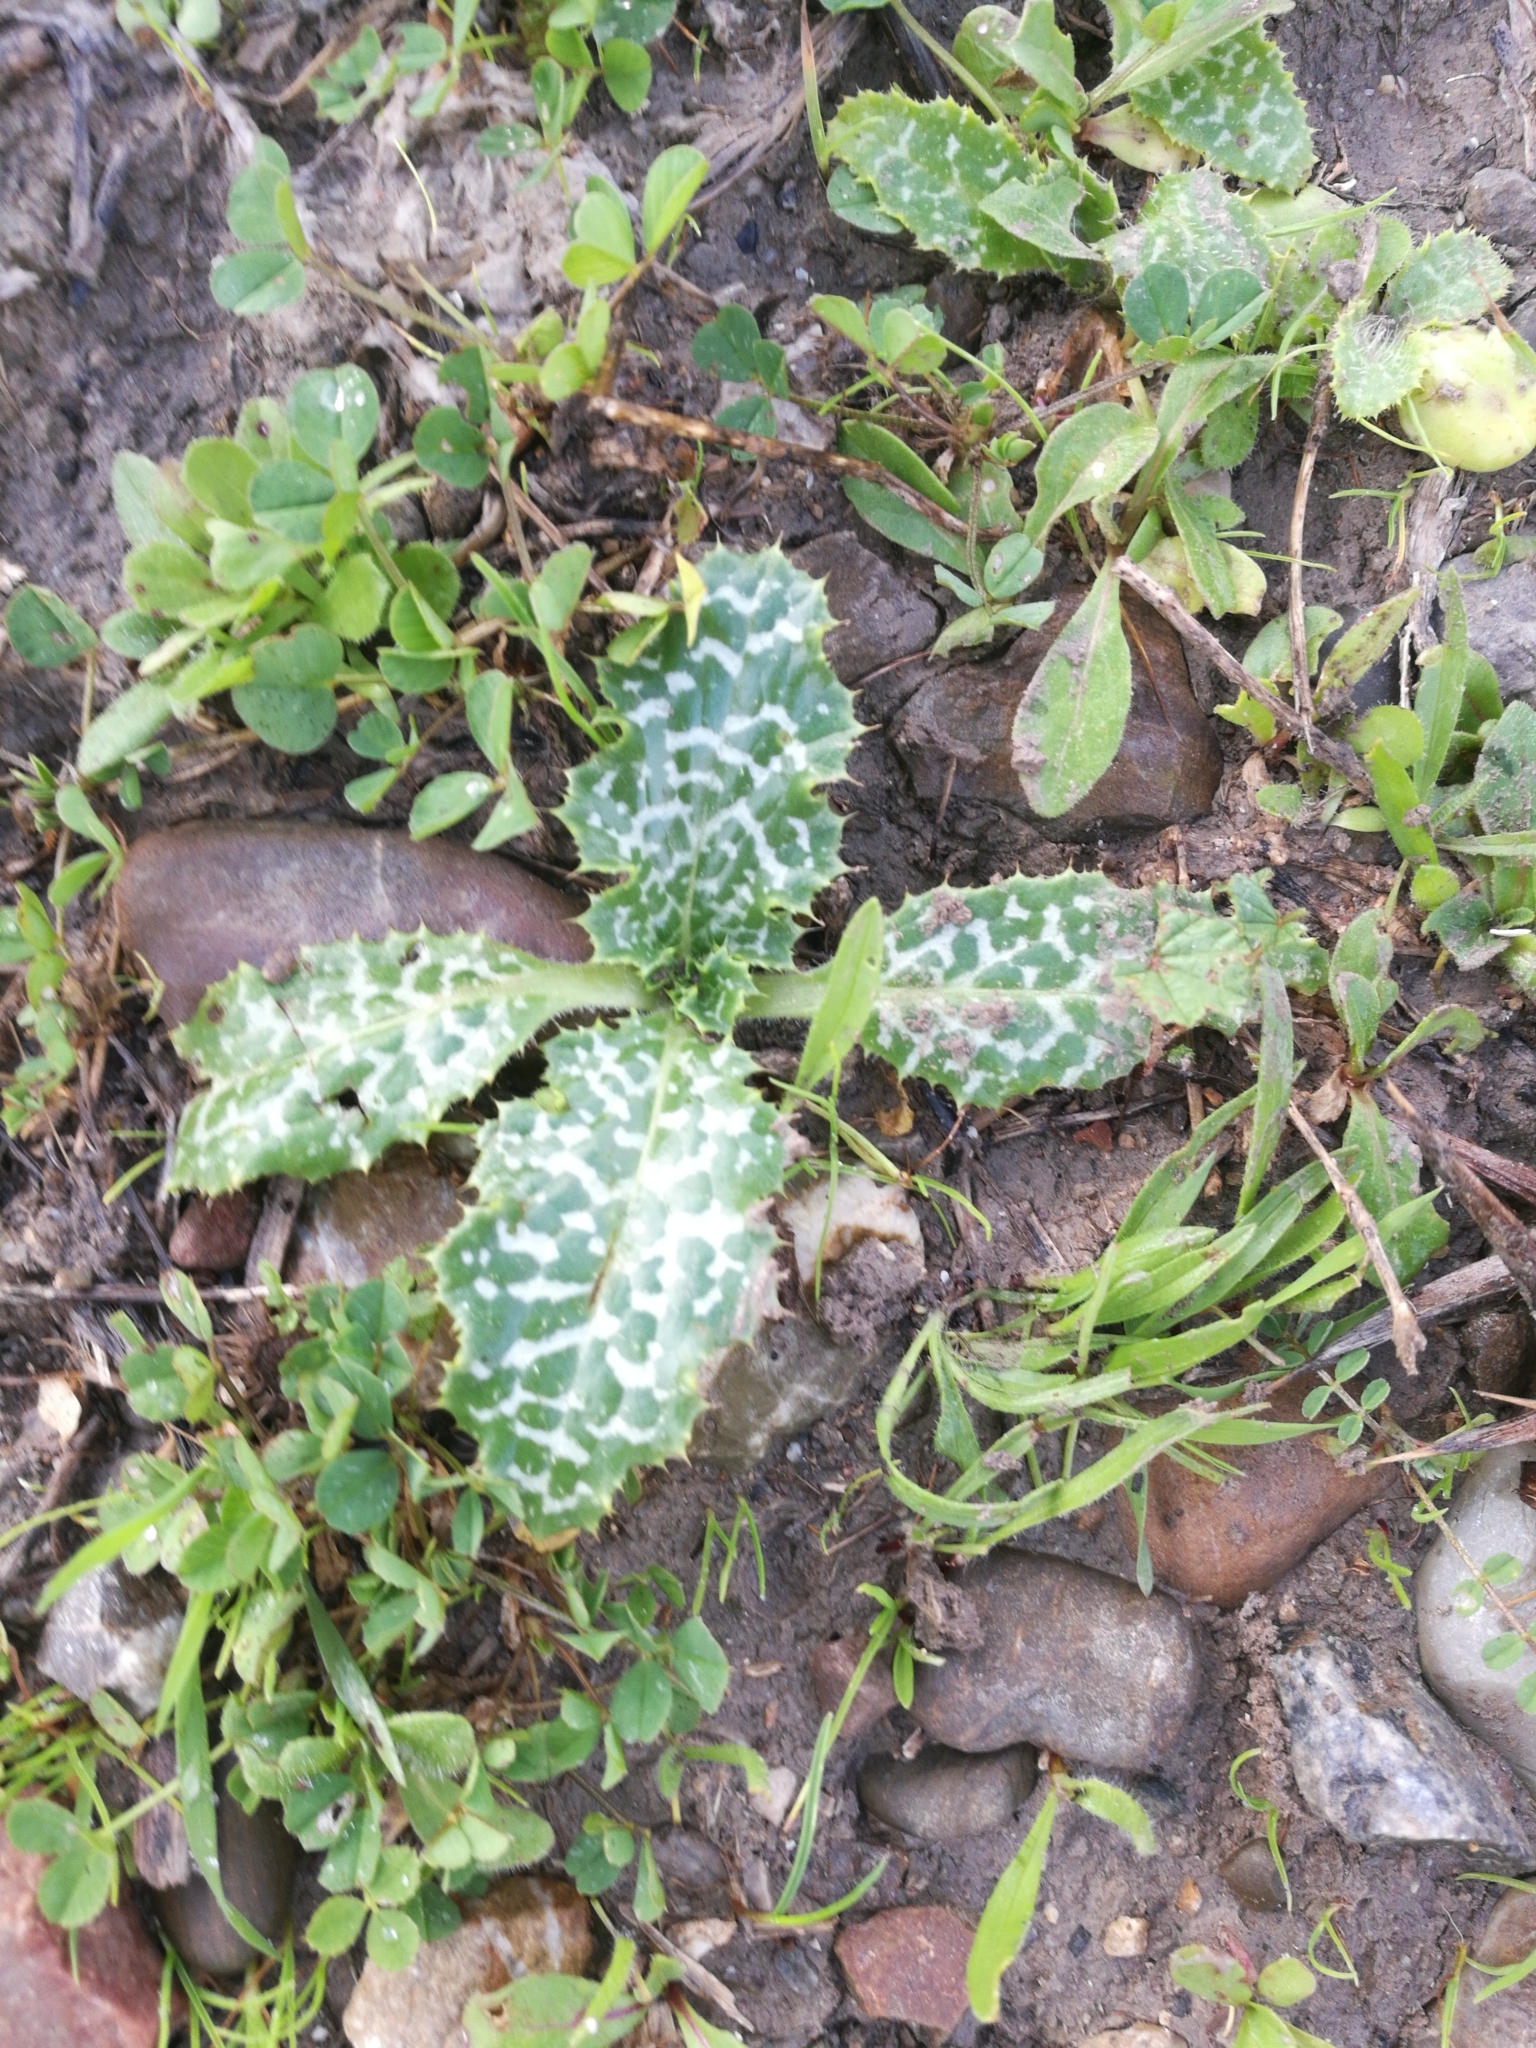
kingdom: Plantae
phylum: Tracheophyta
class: Magnoliopsida
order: Asterales
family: Asteraceae
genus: Silybum
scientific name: Silybum marianum
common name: Milk thistle
